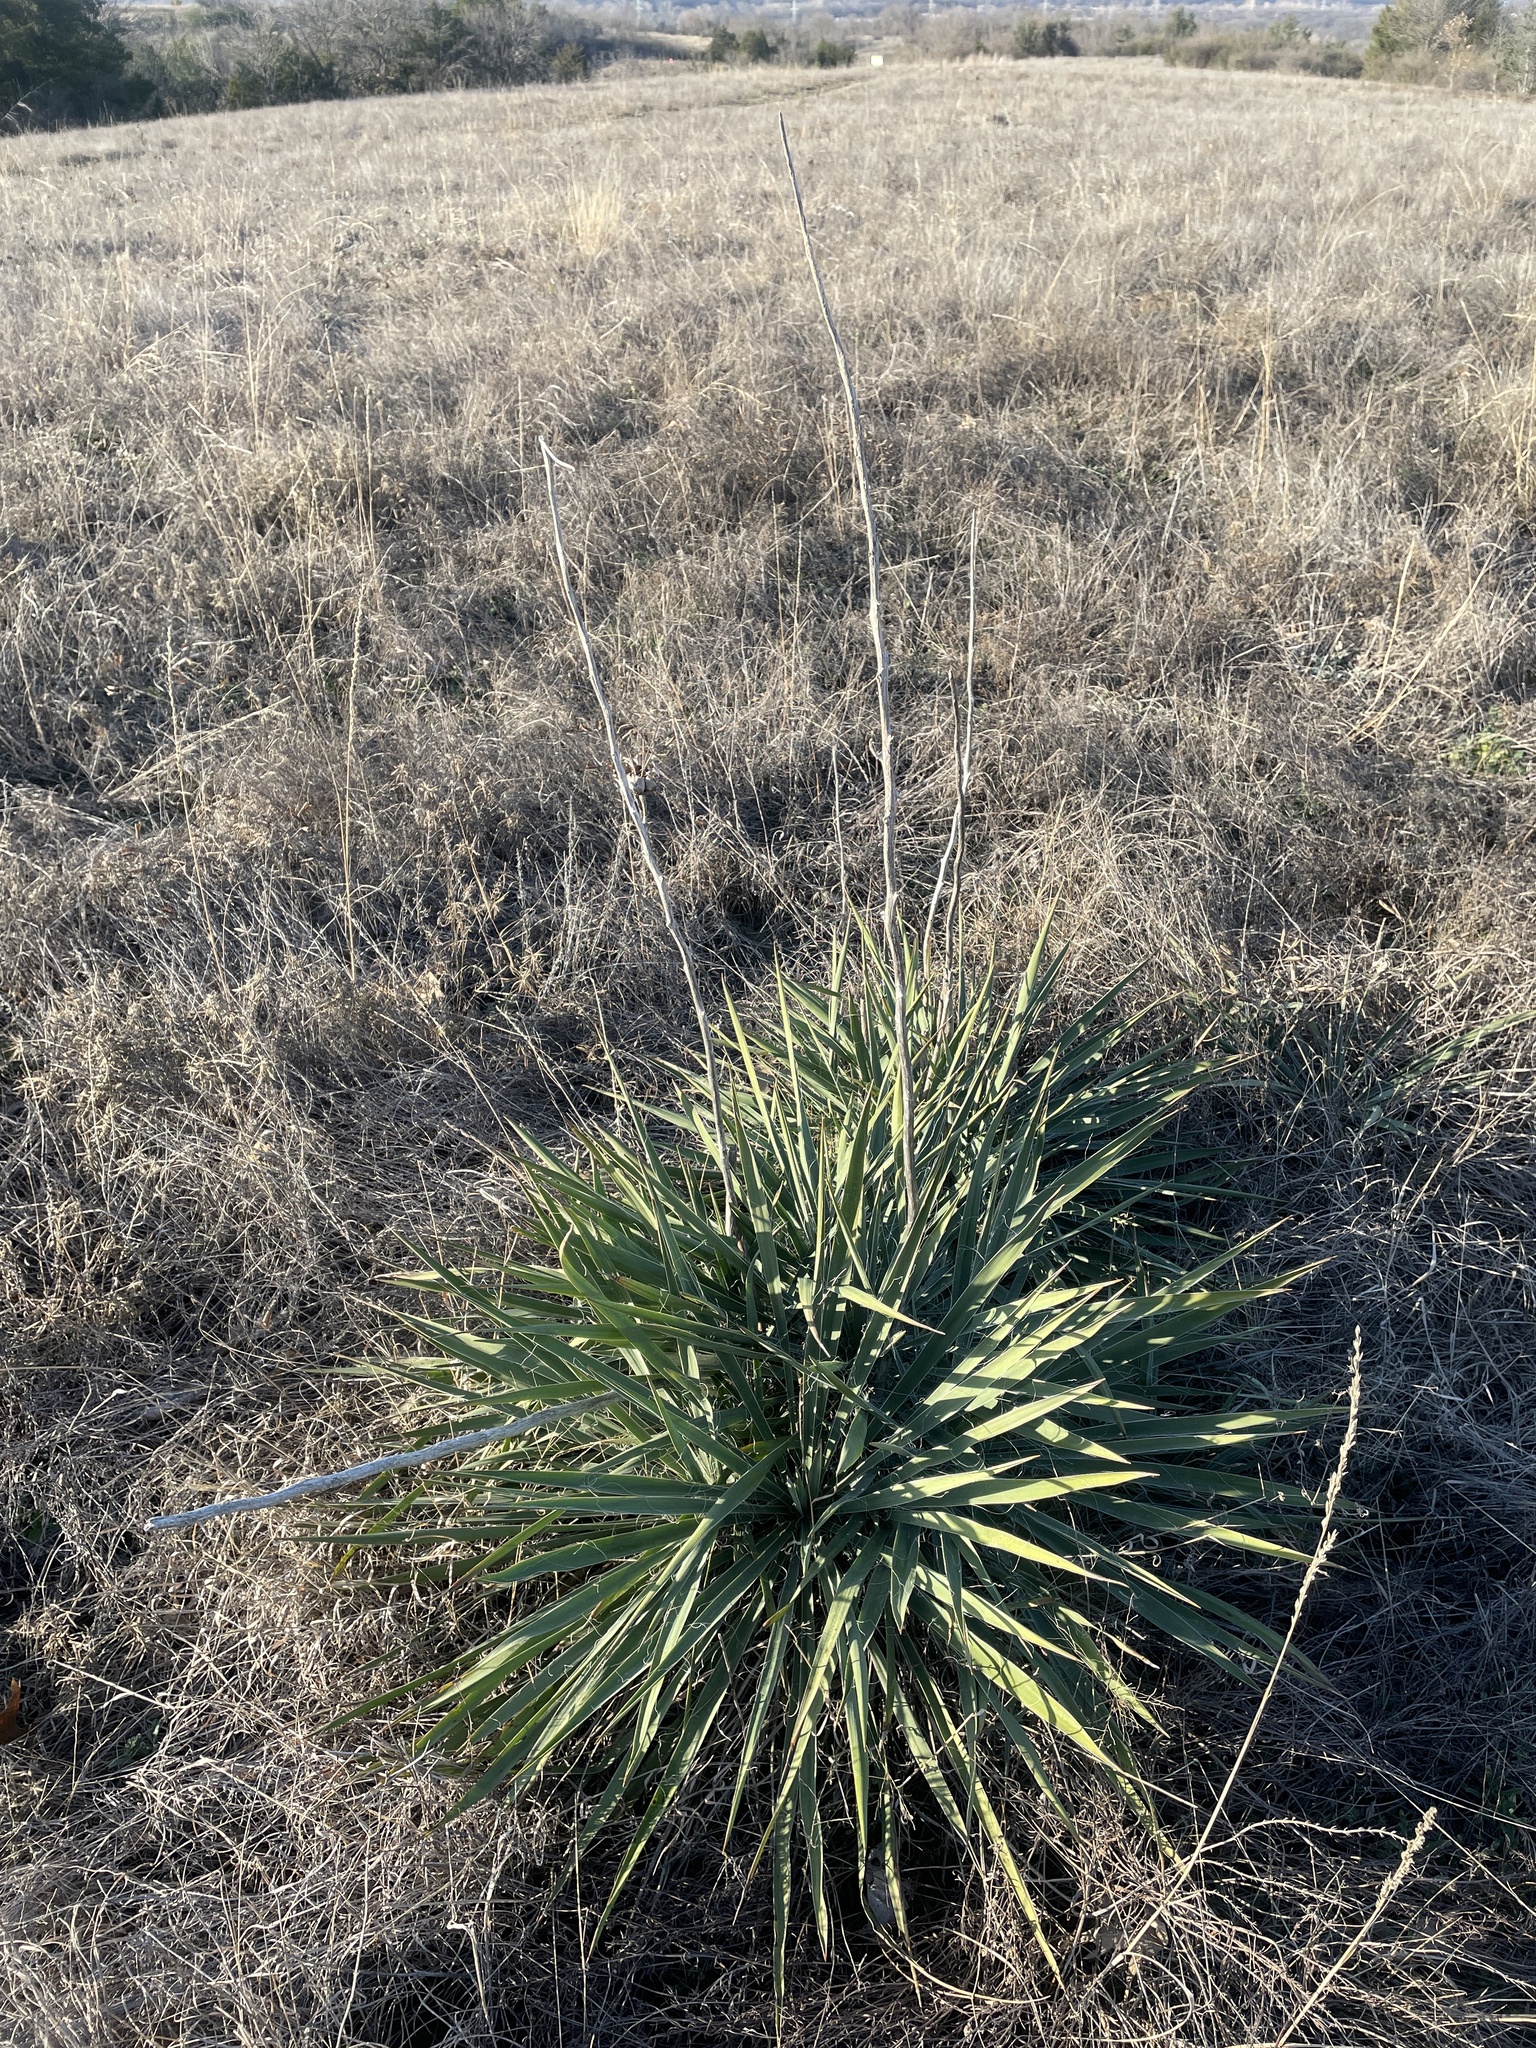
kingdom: Plantae
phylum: Tracheophyta
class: Liliopsida
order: Asparagales
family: Asparagaceae
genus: Yucca
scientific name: Yucca arkansana
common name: Arkansas yucca
